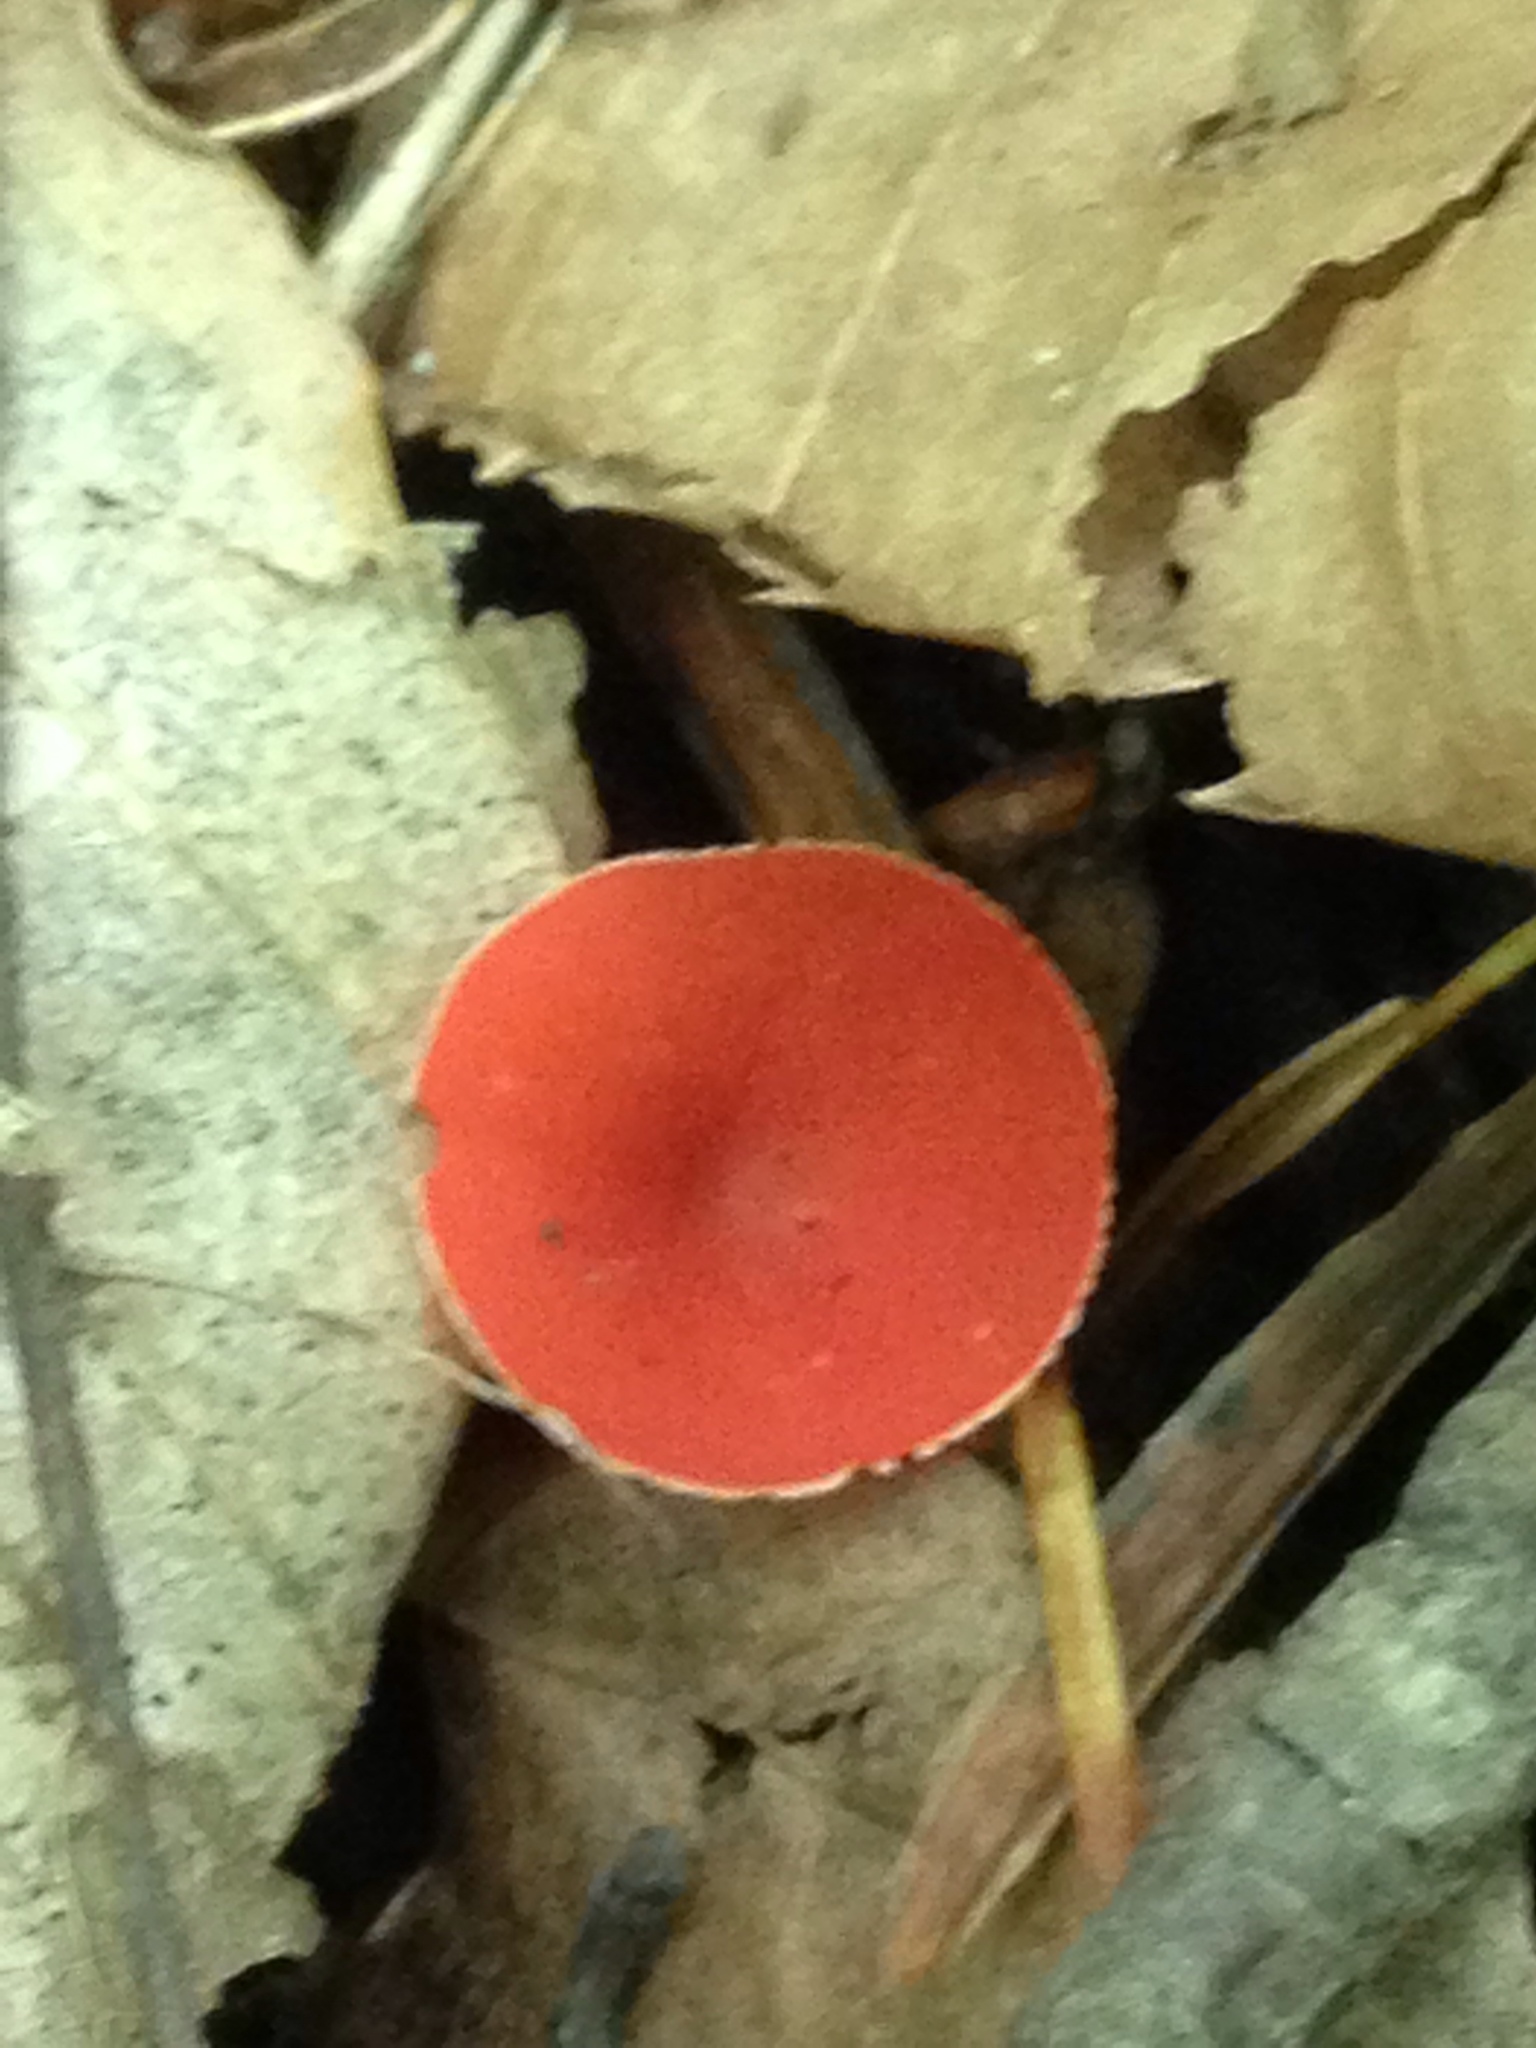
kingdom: Fungi
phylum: Ascomycota
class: Pezizomycetes
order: Pezizales
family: Sarcoscyphaceae
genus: Sarcoscypha
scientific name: Sarcoscypha occidentalis
